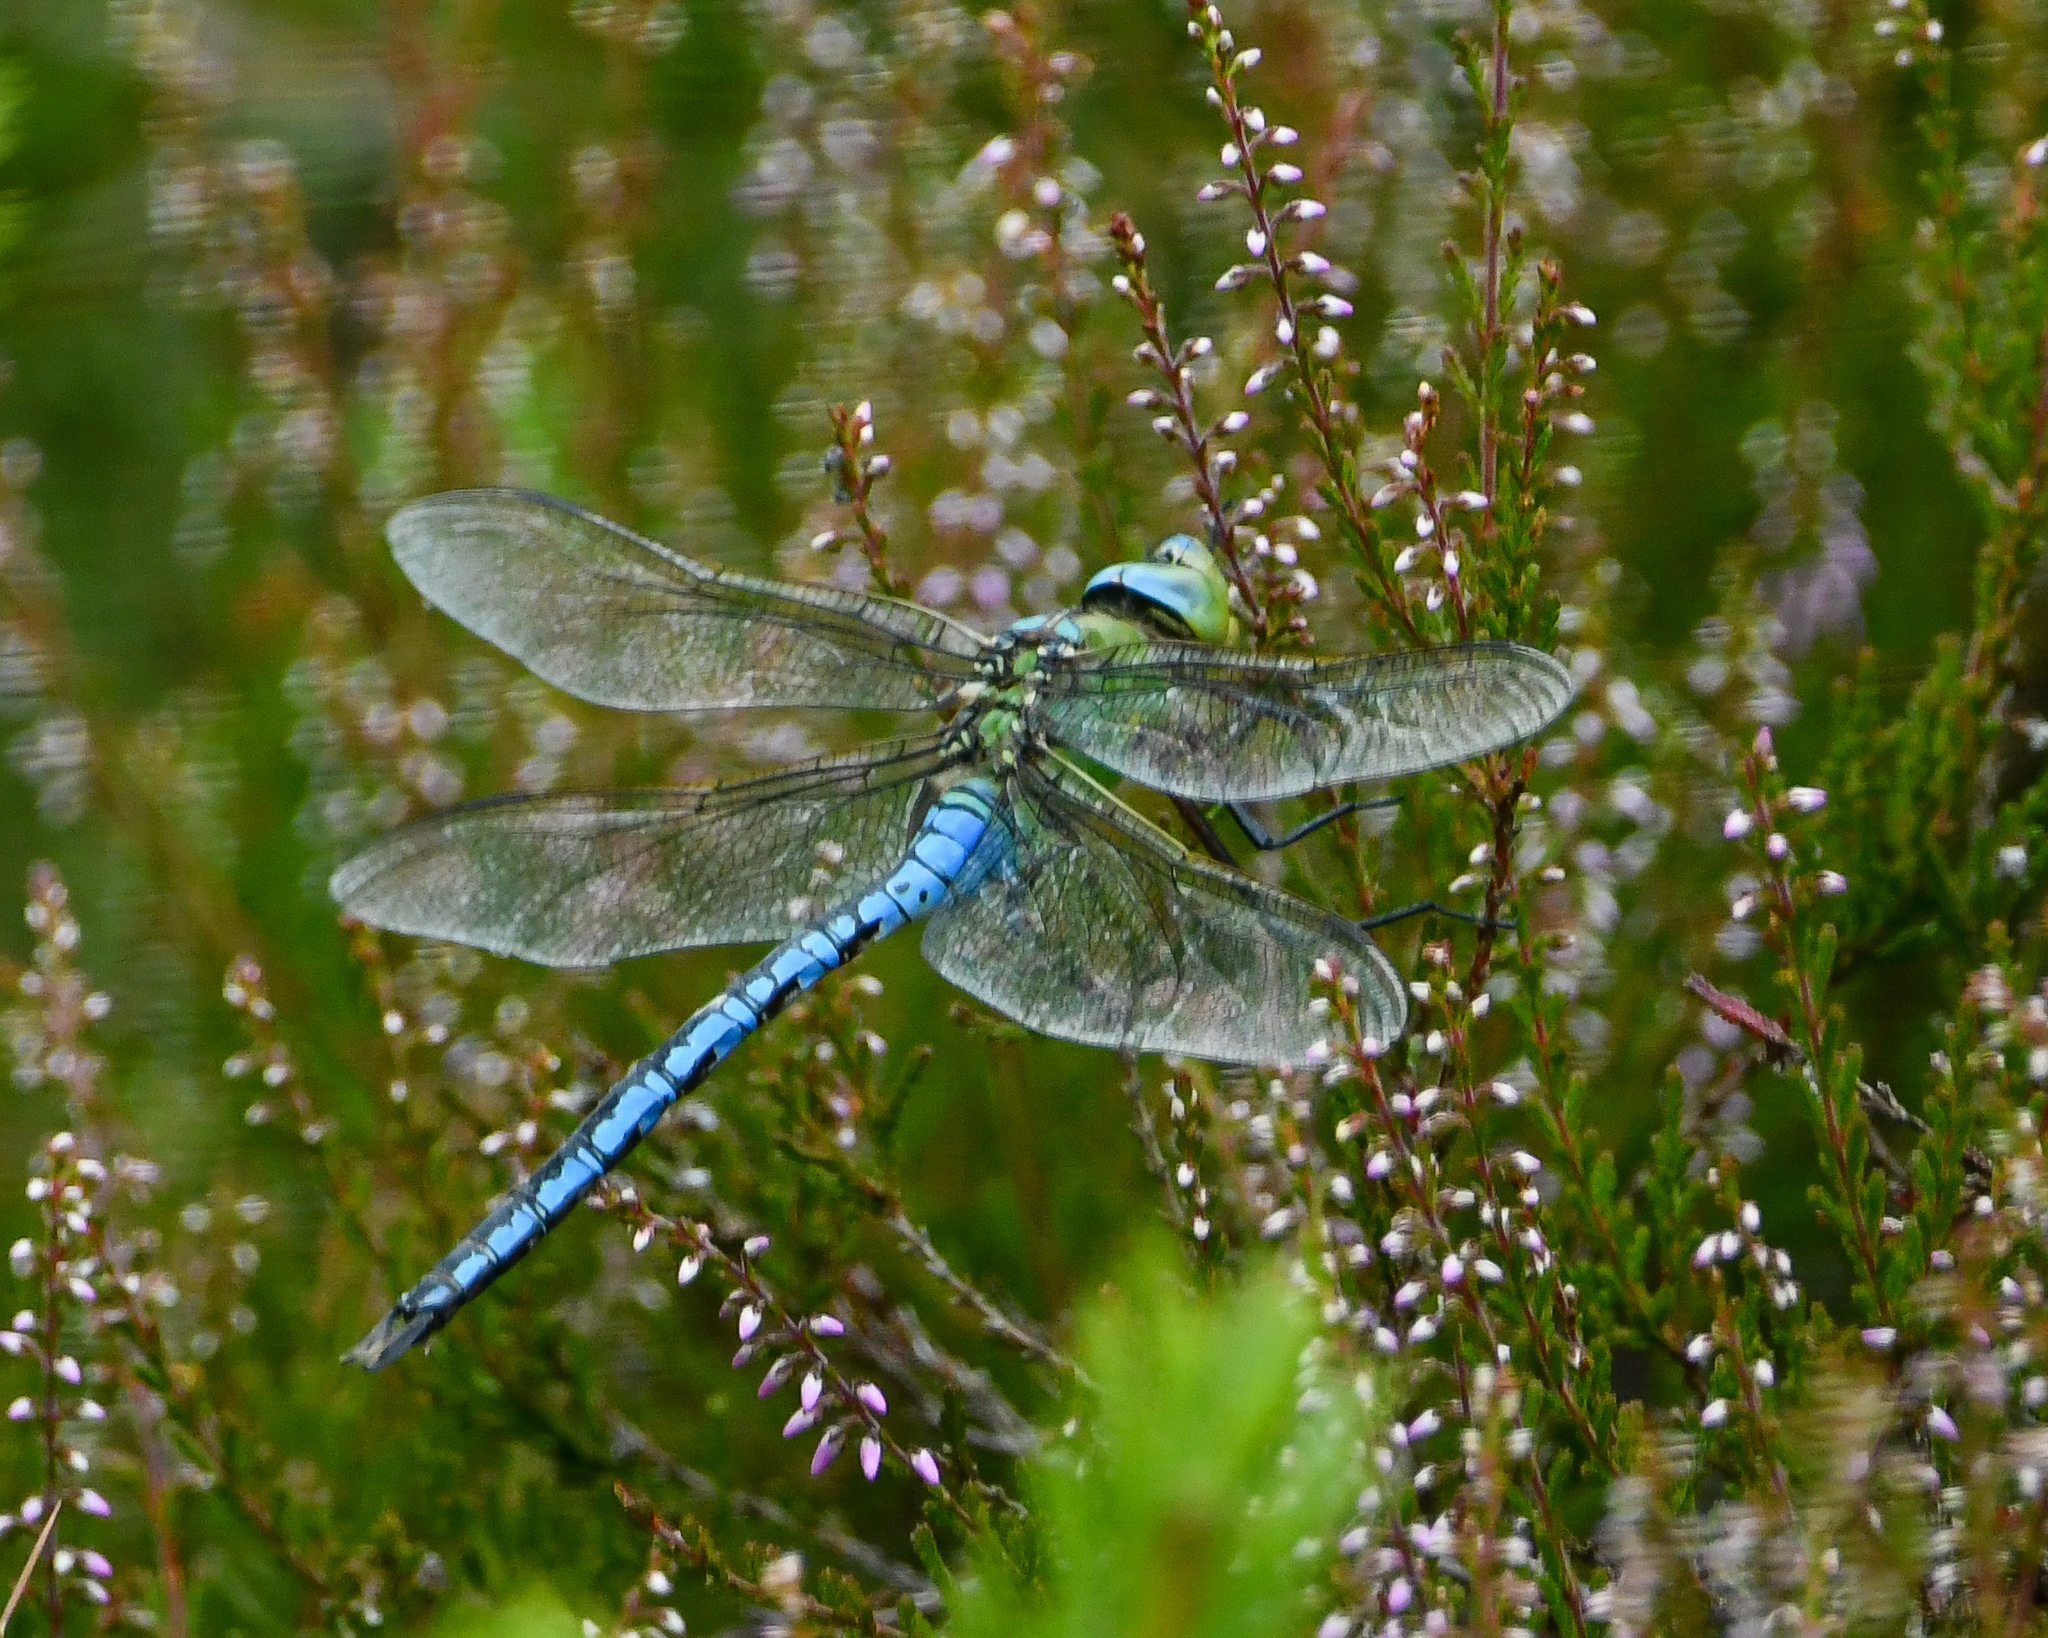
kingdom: Animalia
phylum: Arthropoda
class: Insecta
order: Odonata
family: Aeshnidae
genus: Anax
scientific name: Anax imperator
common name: Emperor dragonfly
